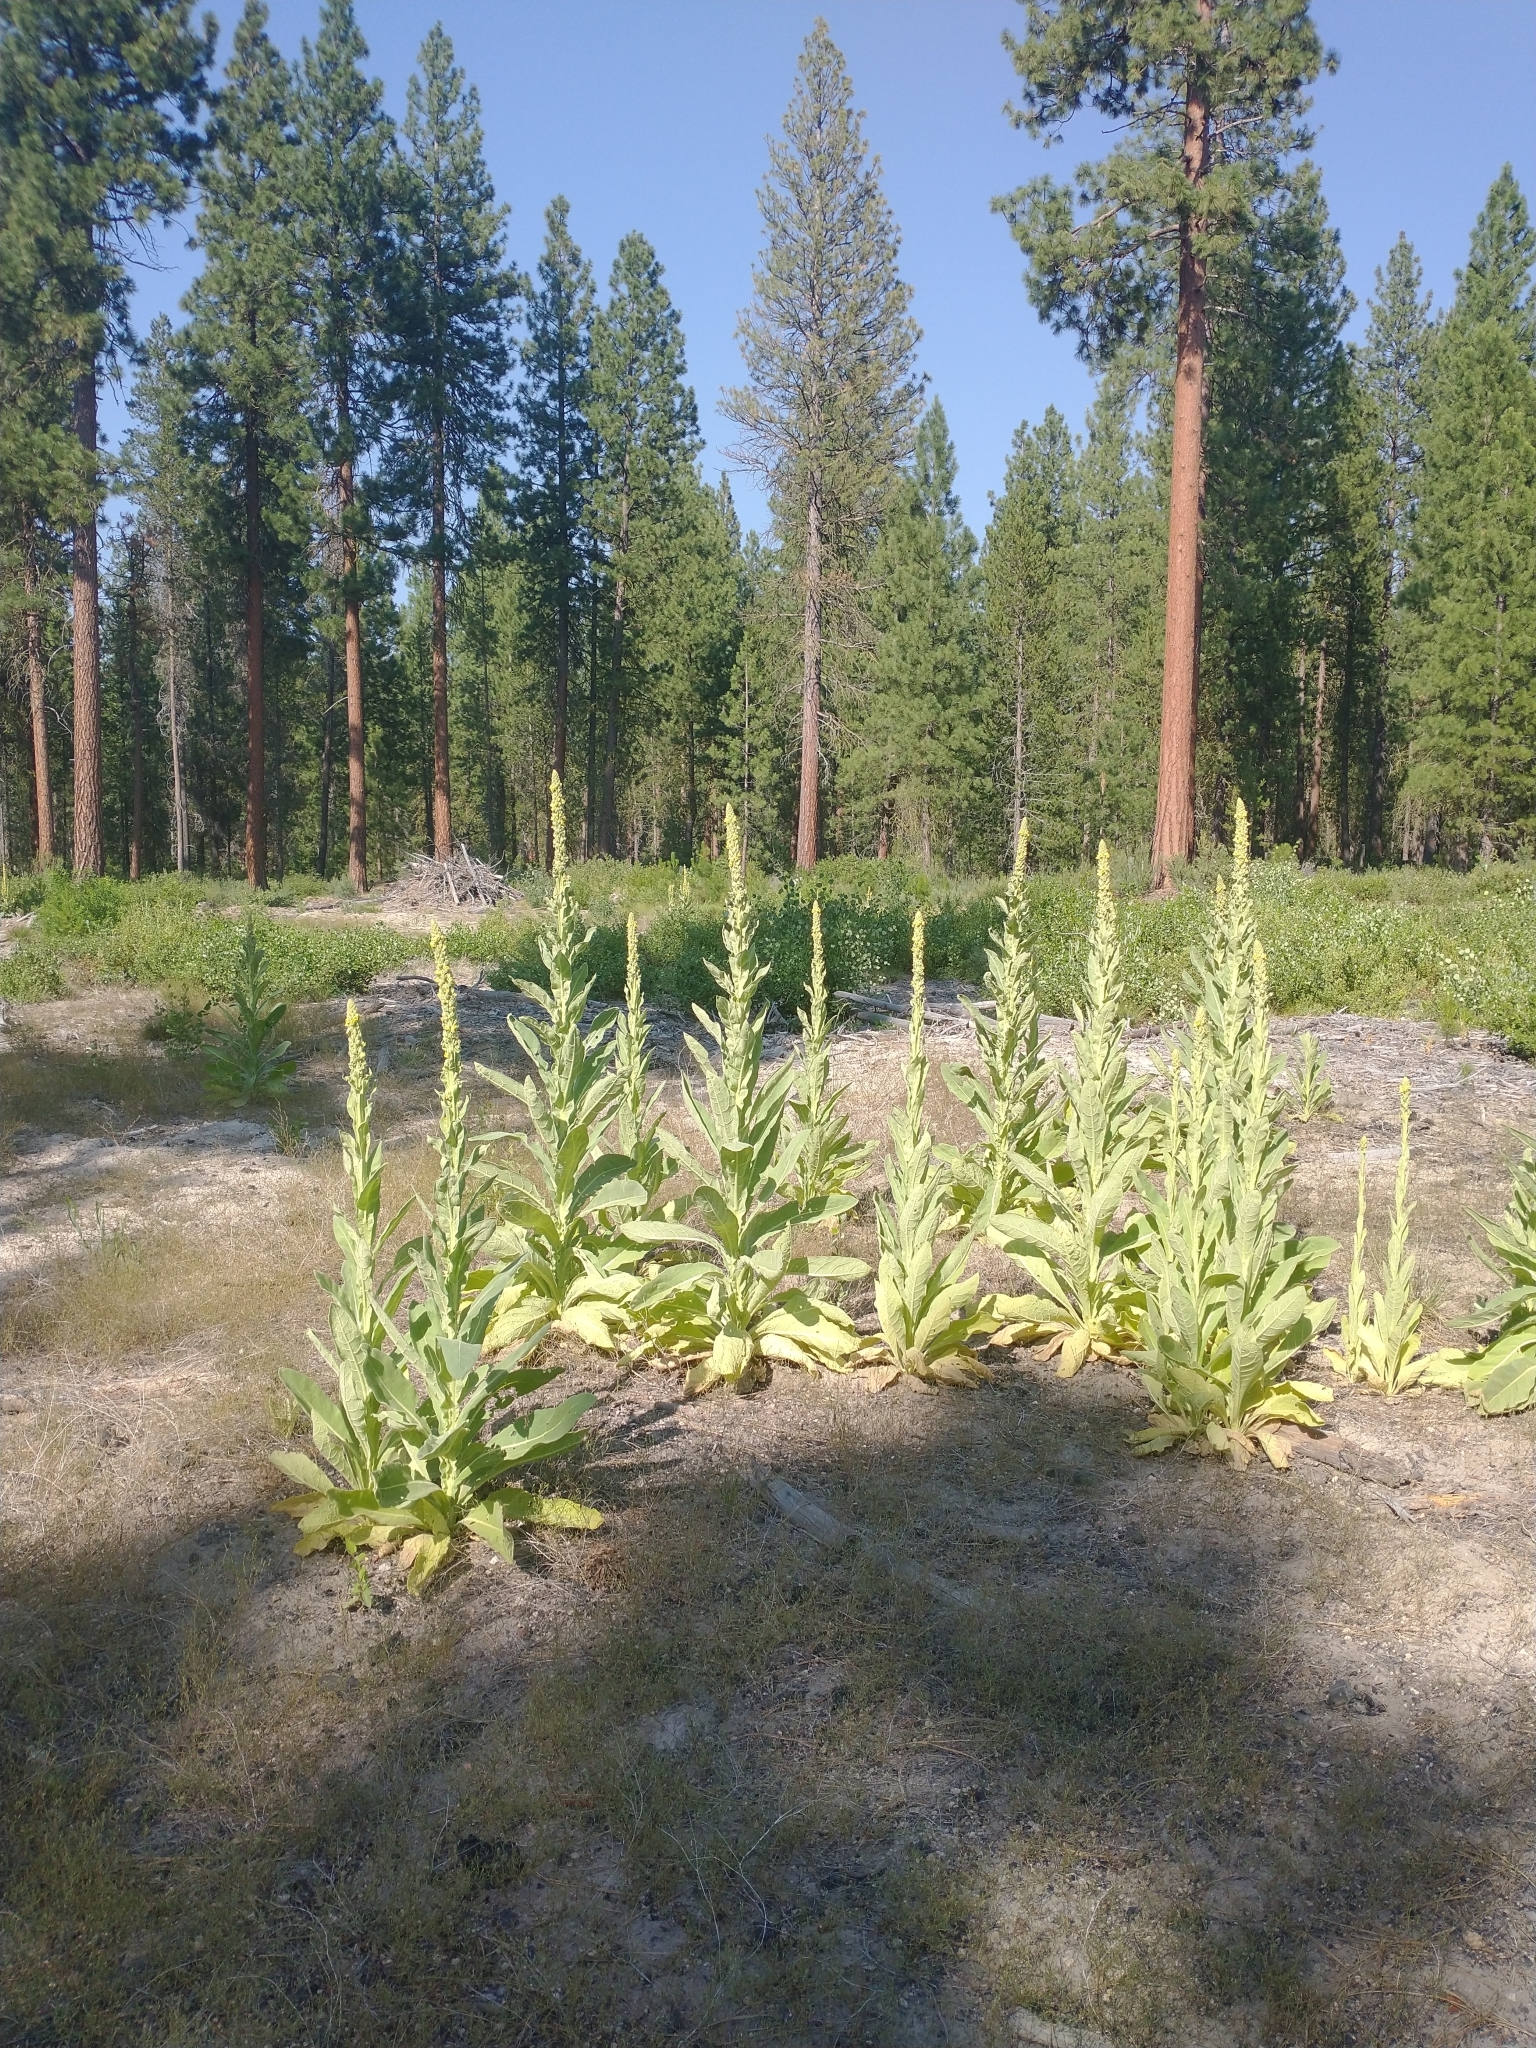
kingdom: Plantae
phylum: Tracheophyta
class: Magnoliopsida
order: Lamiales
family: Scrophulariaceae
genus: Verbascum
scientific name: Verbascum thapsus
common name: Common mullein
